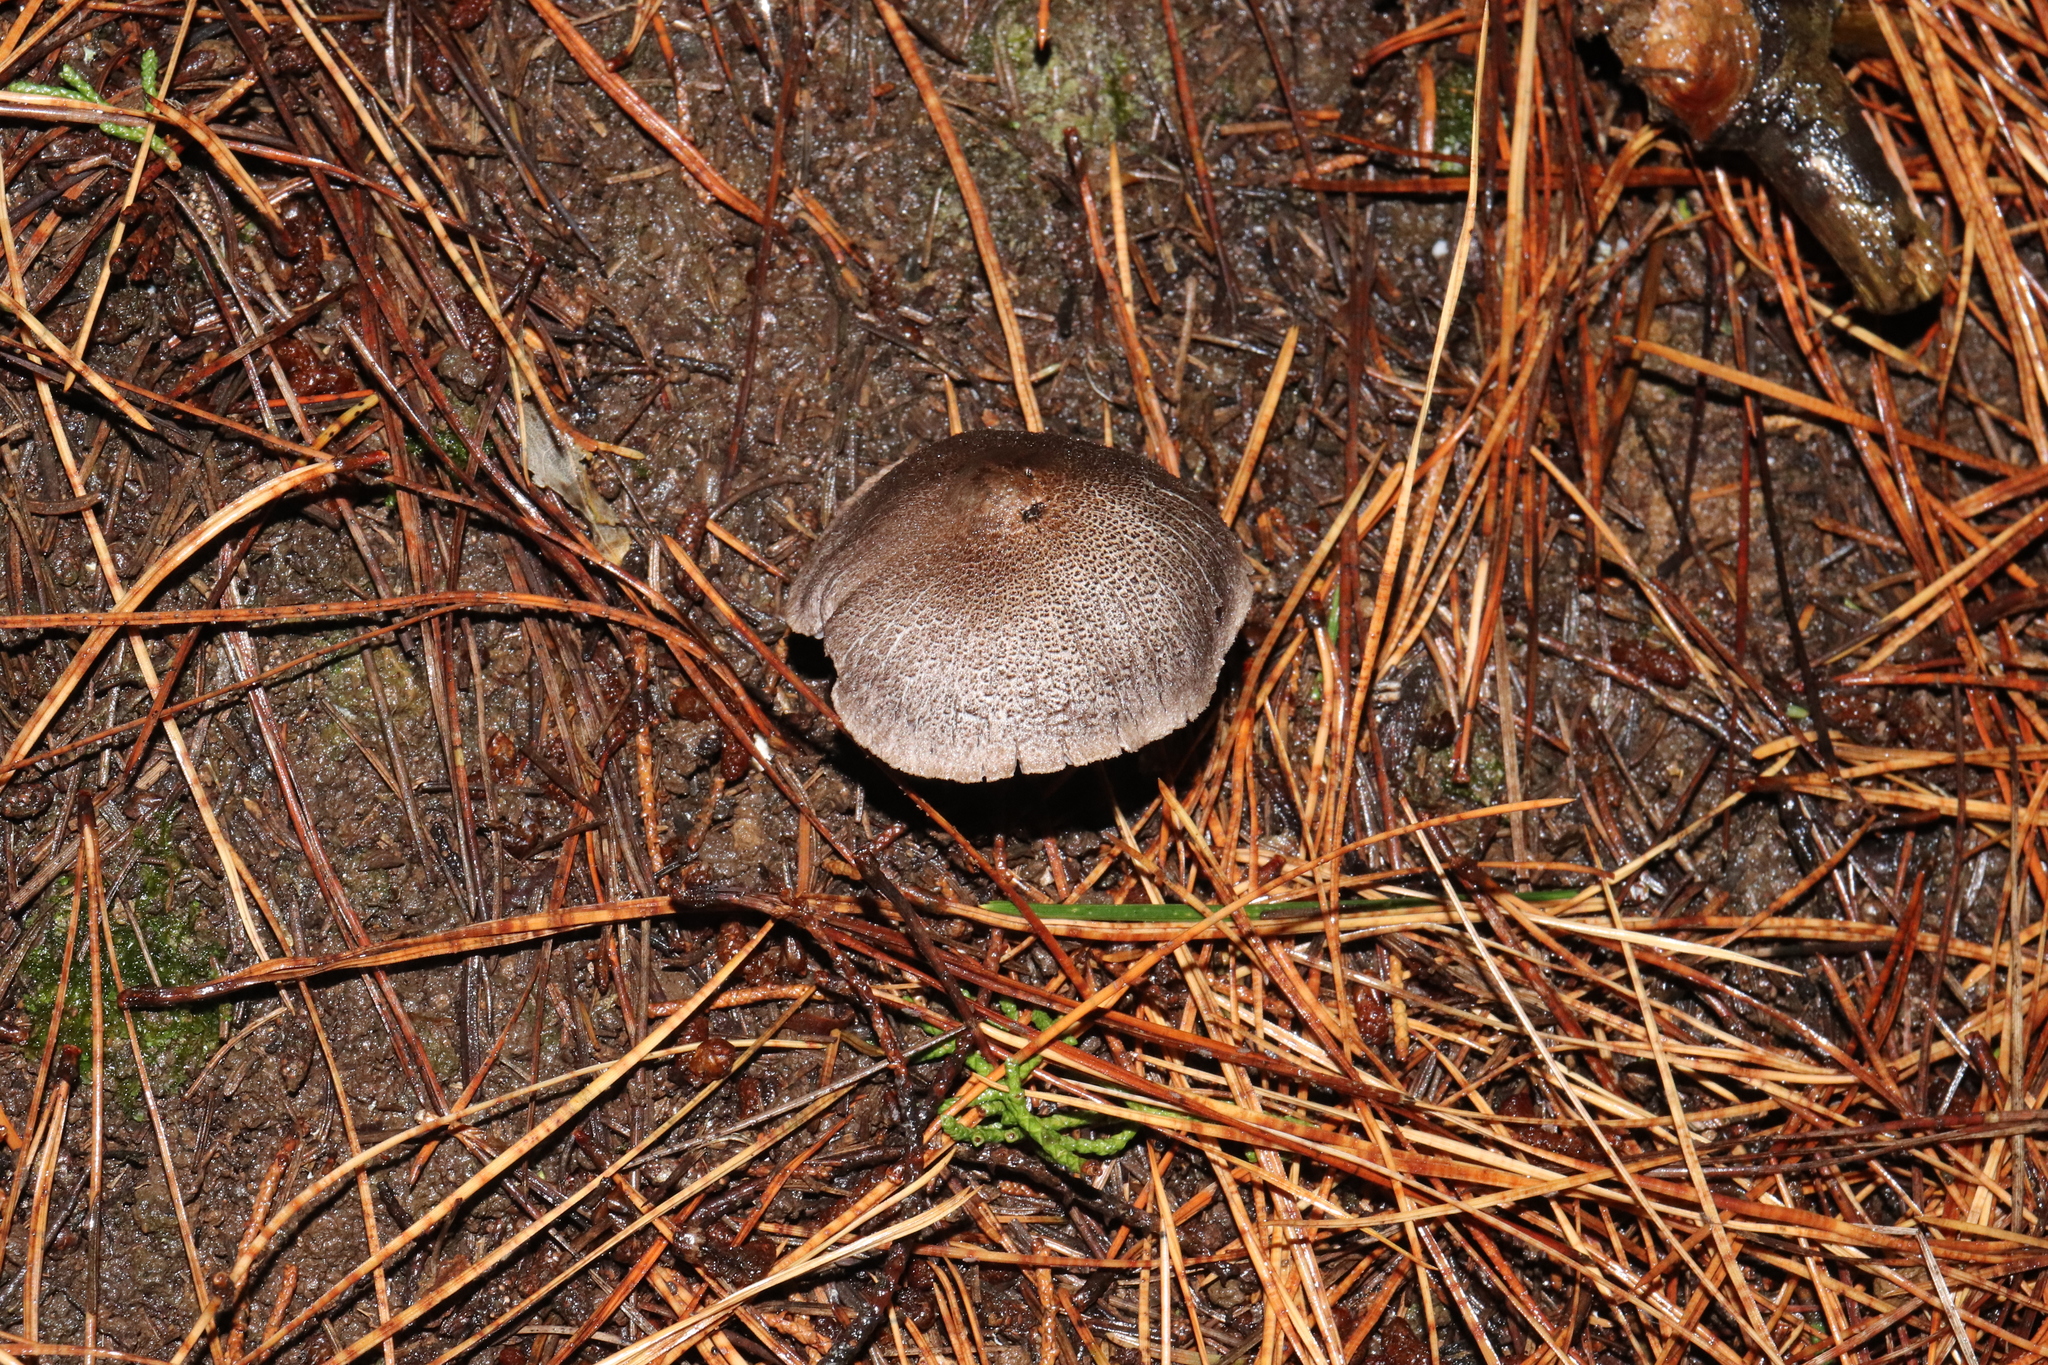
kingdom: Fungi
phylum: Basidiomycota
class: Agaricomycetes
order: Agaricales
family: Tricholomataceae
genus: Tricholoma
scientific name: Tricholoma terreum
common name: Grey knight
